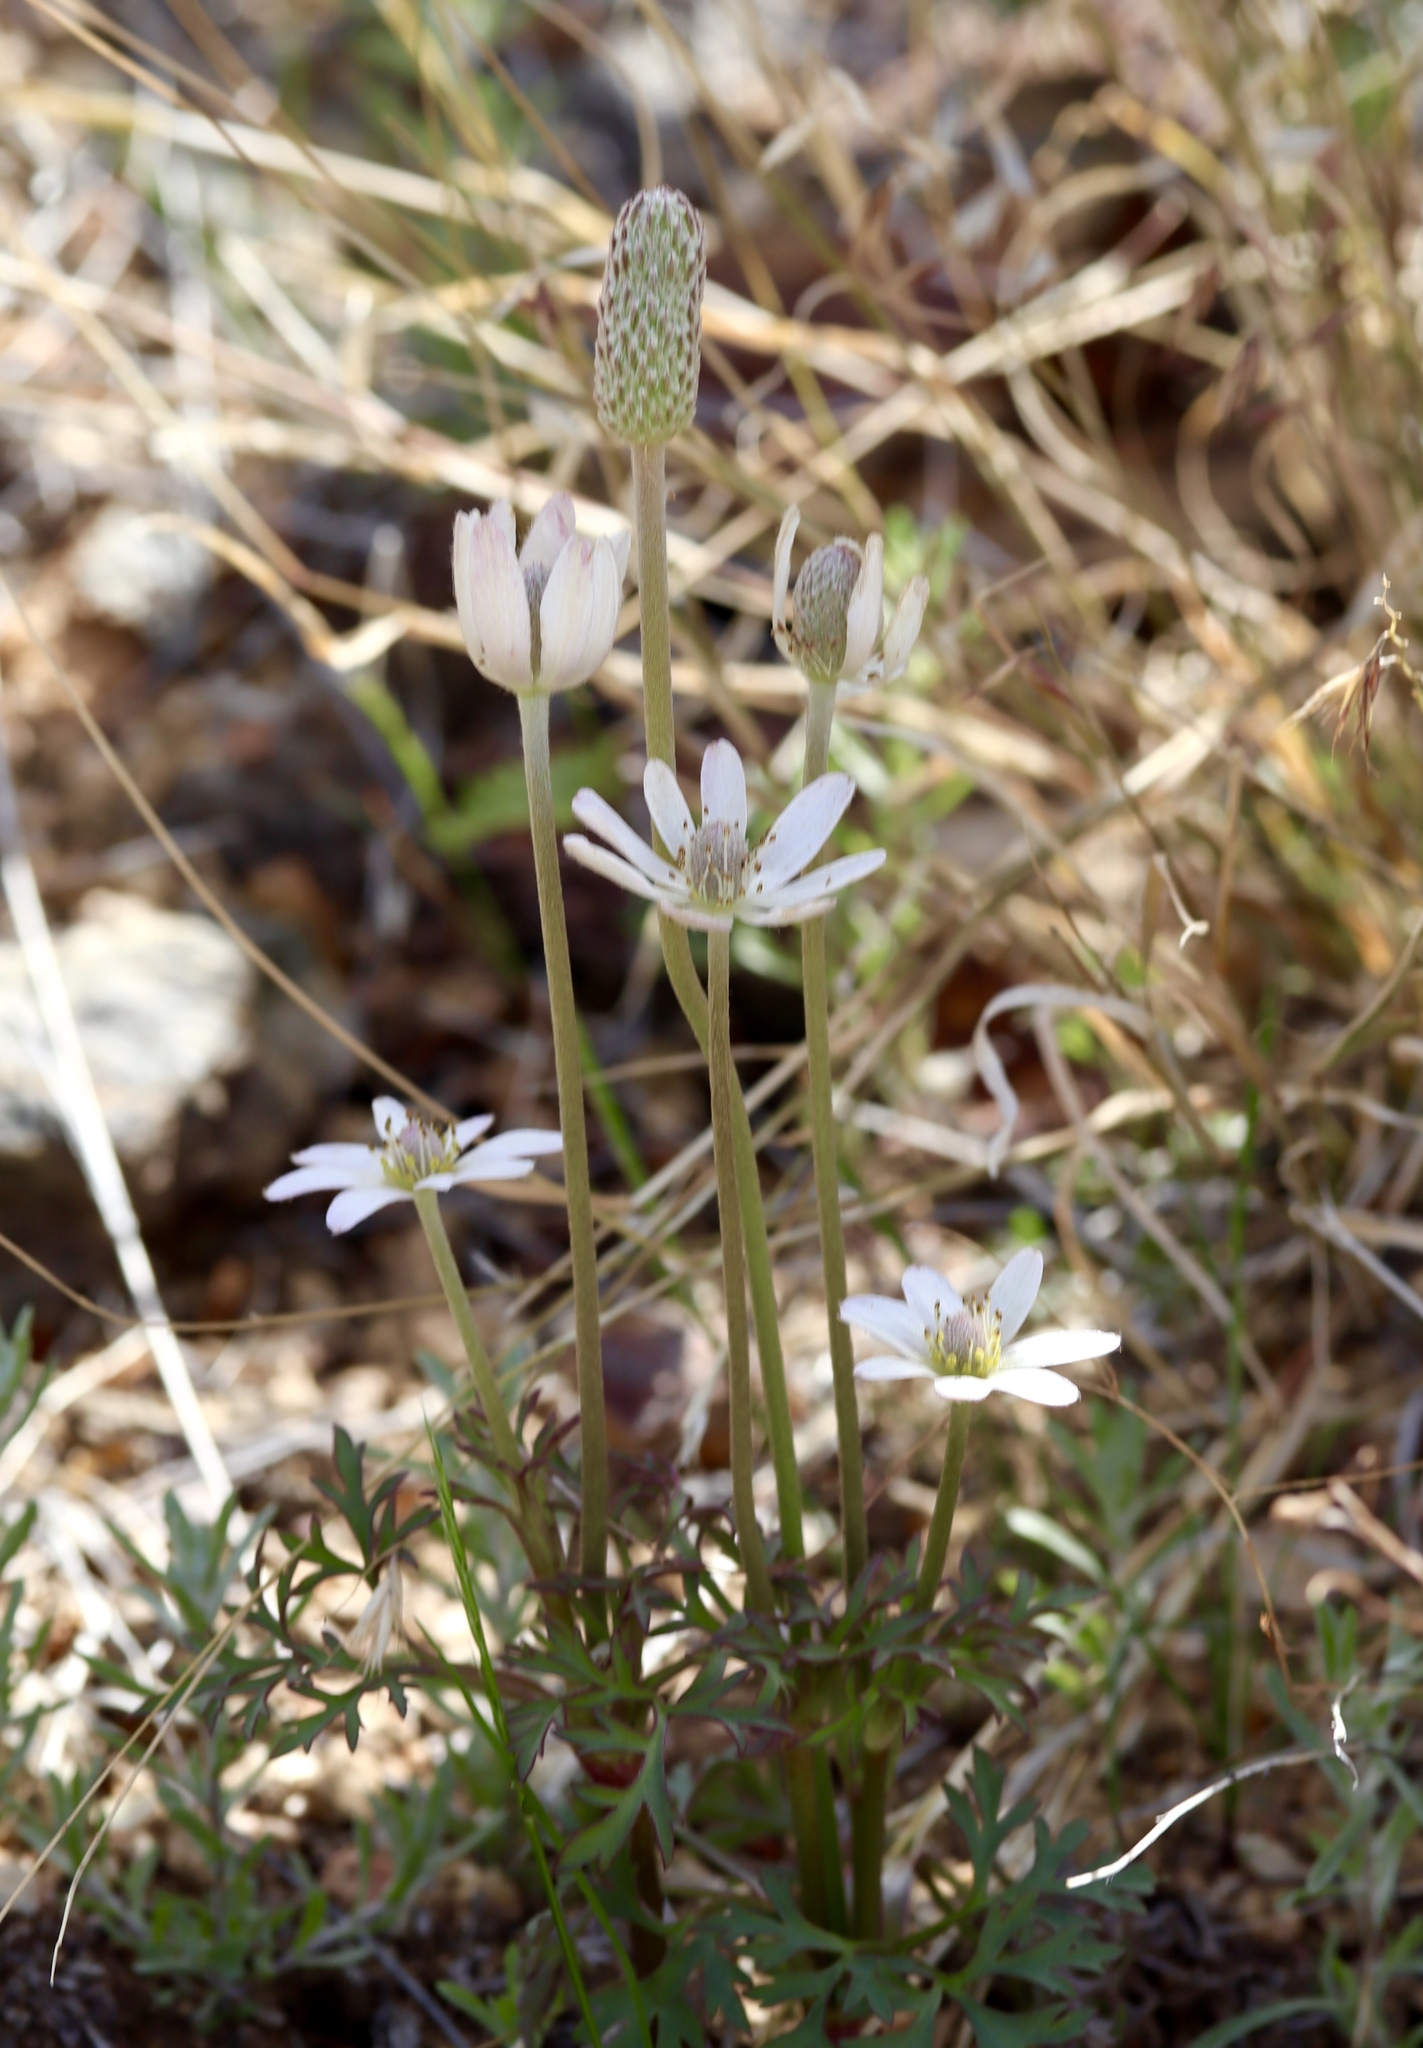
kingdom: Plantae
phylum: Tracheophyta
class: Magnoliopsida
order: Ranunculales
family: Ranunculaceae
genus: Anemone
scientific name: Anemone tuberosa
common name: Desert anemone
